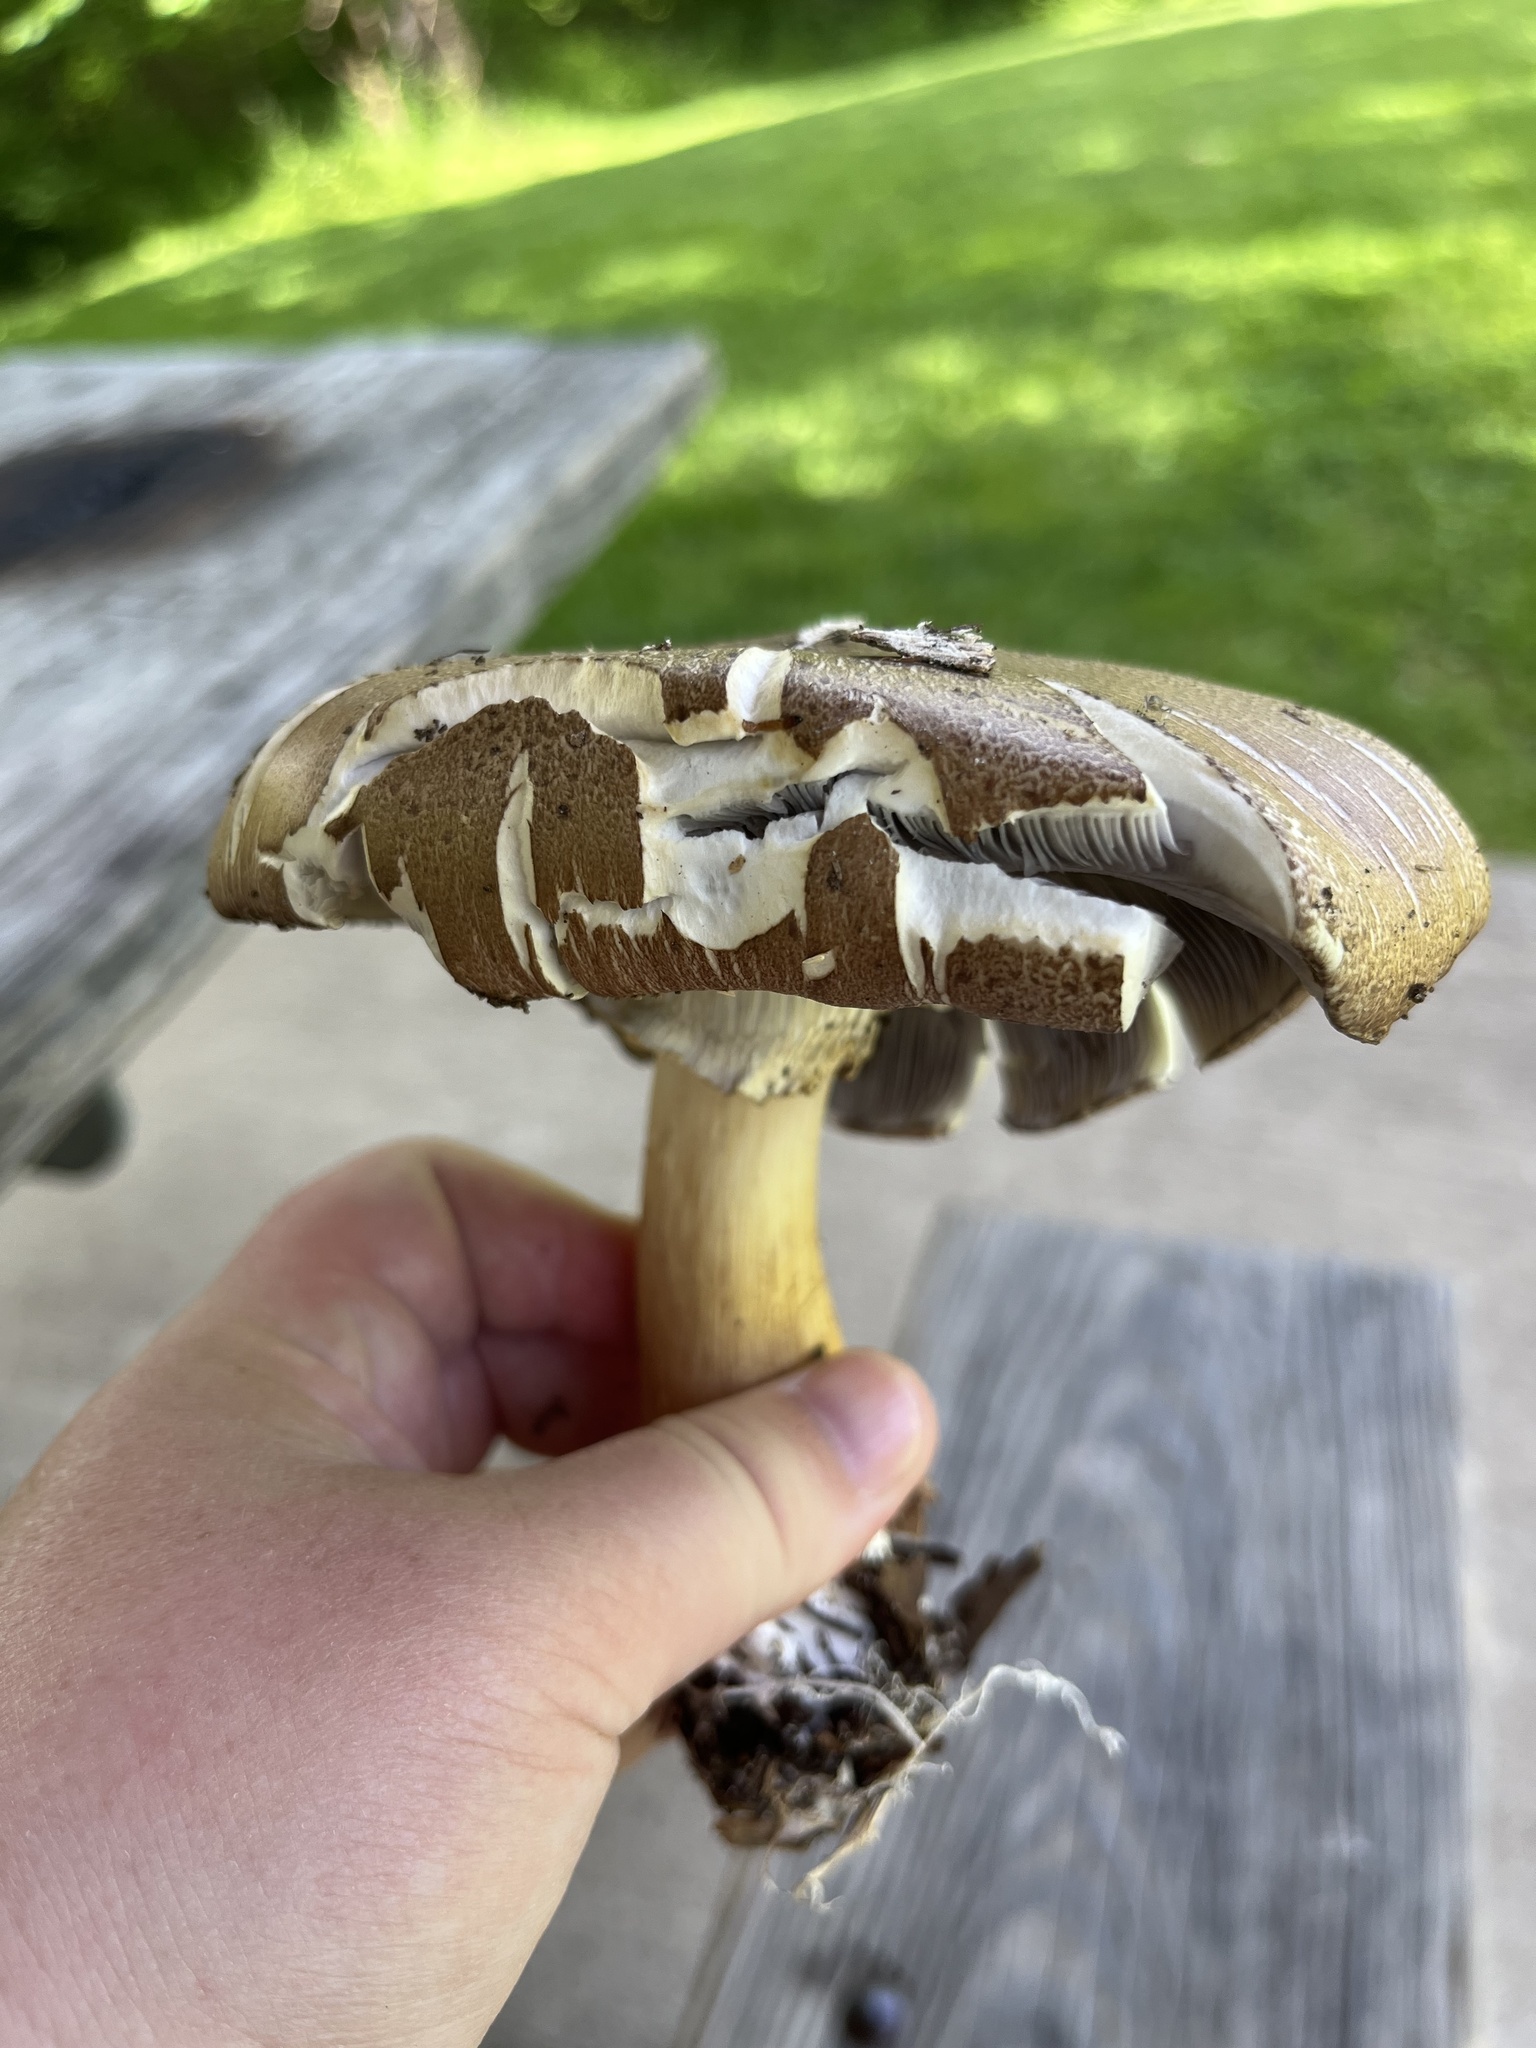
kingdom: Fungi
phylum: Basidiomycota
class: Agaricomycetes
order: Agaricales
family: Strophariaceae
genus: Stropharia
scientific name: Stropharia rugosoannulata
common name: Wine roundhead
